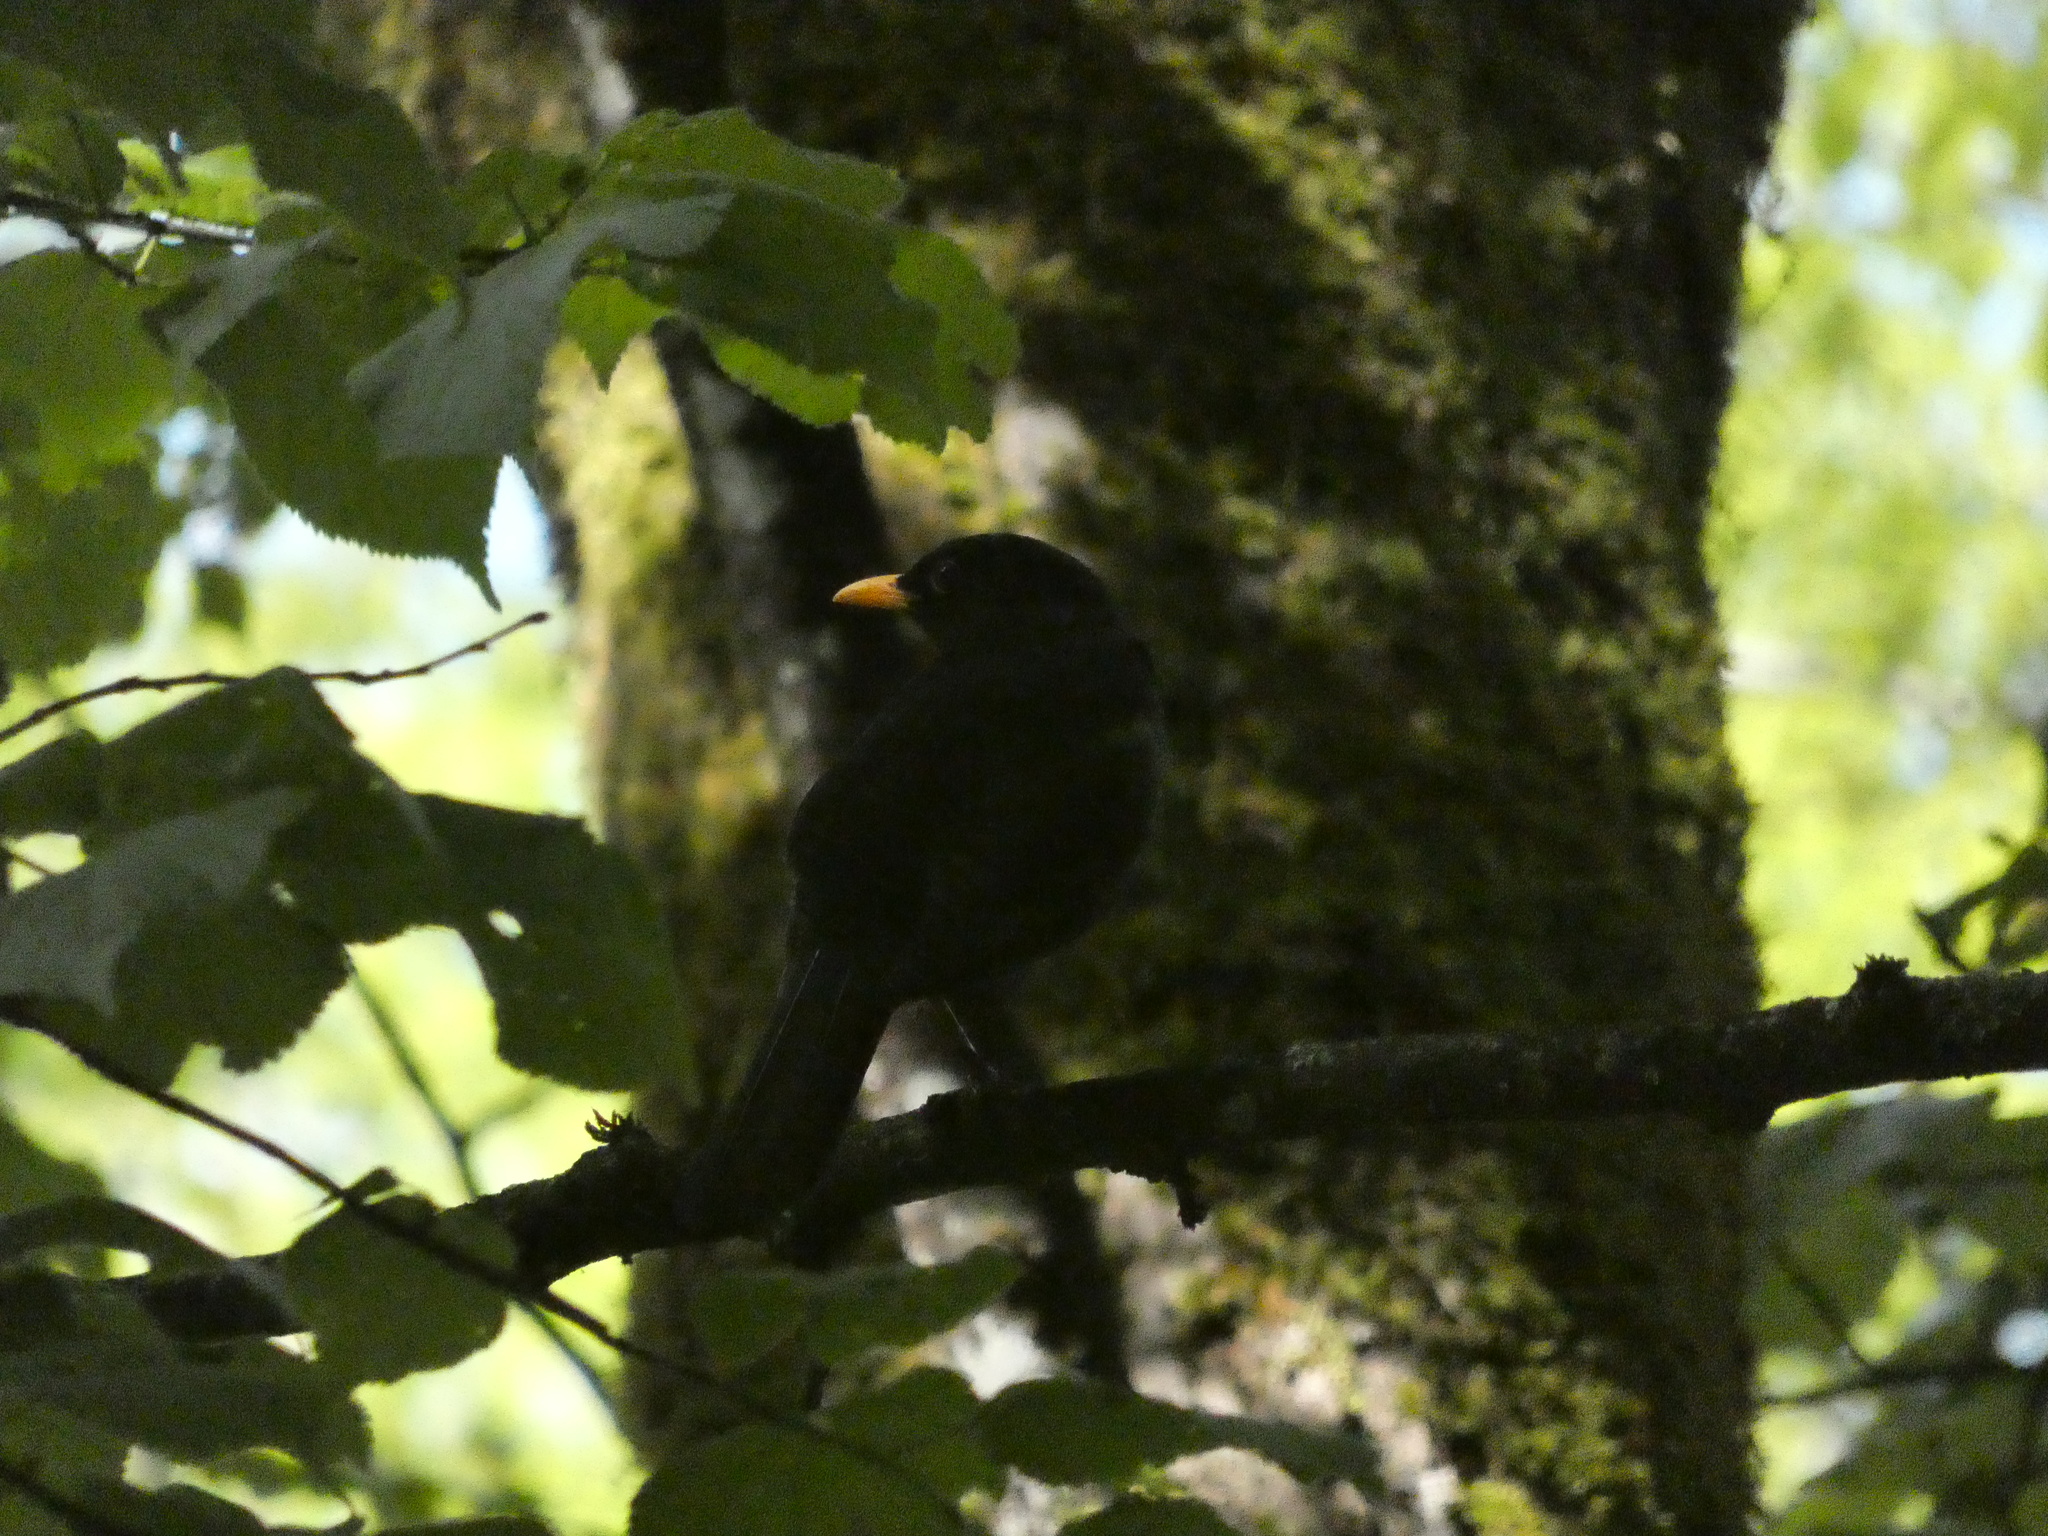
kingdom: Animalia
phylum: Chordata
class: Aves
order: Passeriformes
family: Turdidae
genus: Turdus
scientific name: Turdus merula
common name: Common blackbird
